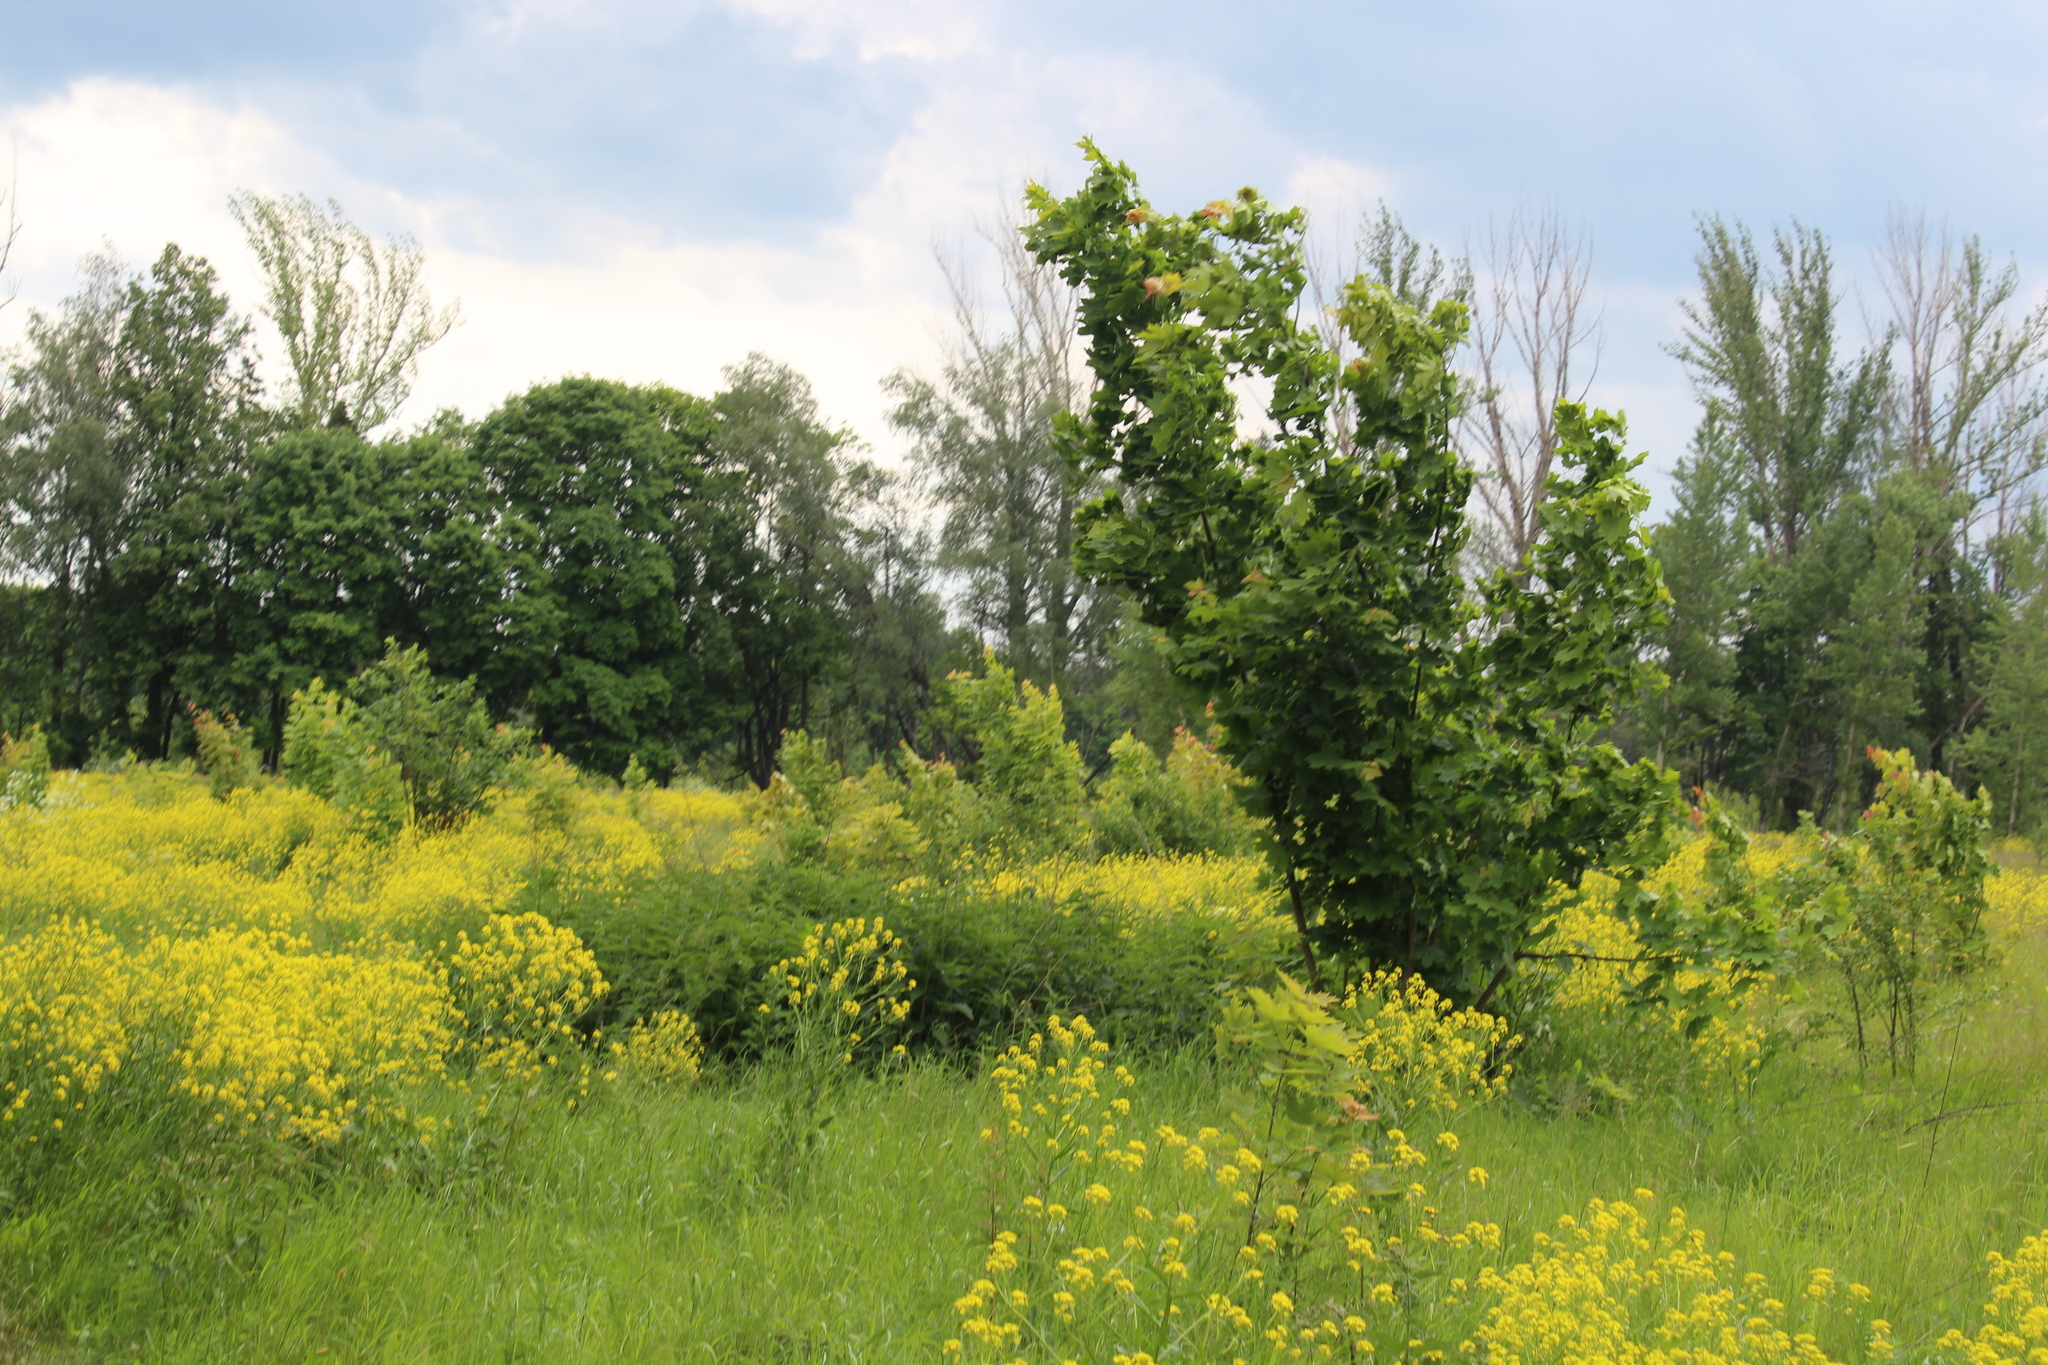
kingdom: Plantae
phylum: Tracheophyta
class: Magnoliopsida
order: Brassicales
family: Brassicaceae
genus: Bunias
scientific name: Bunias orientalis
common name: Warty-cabbage
